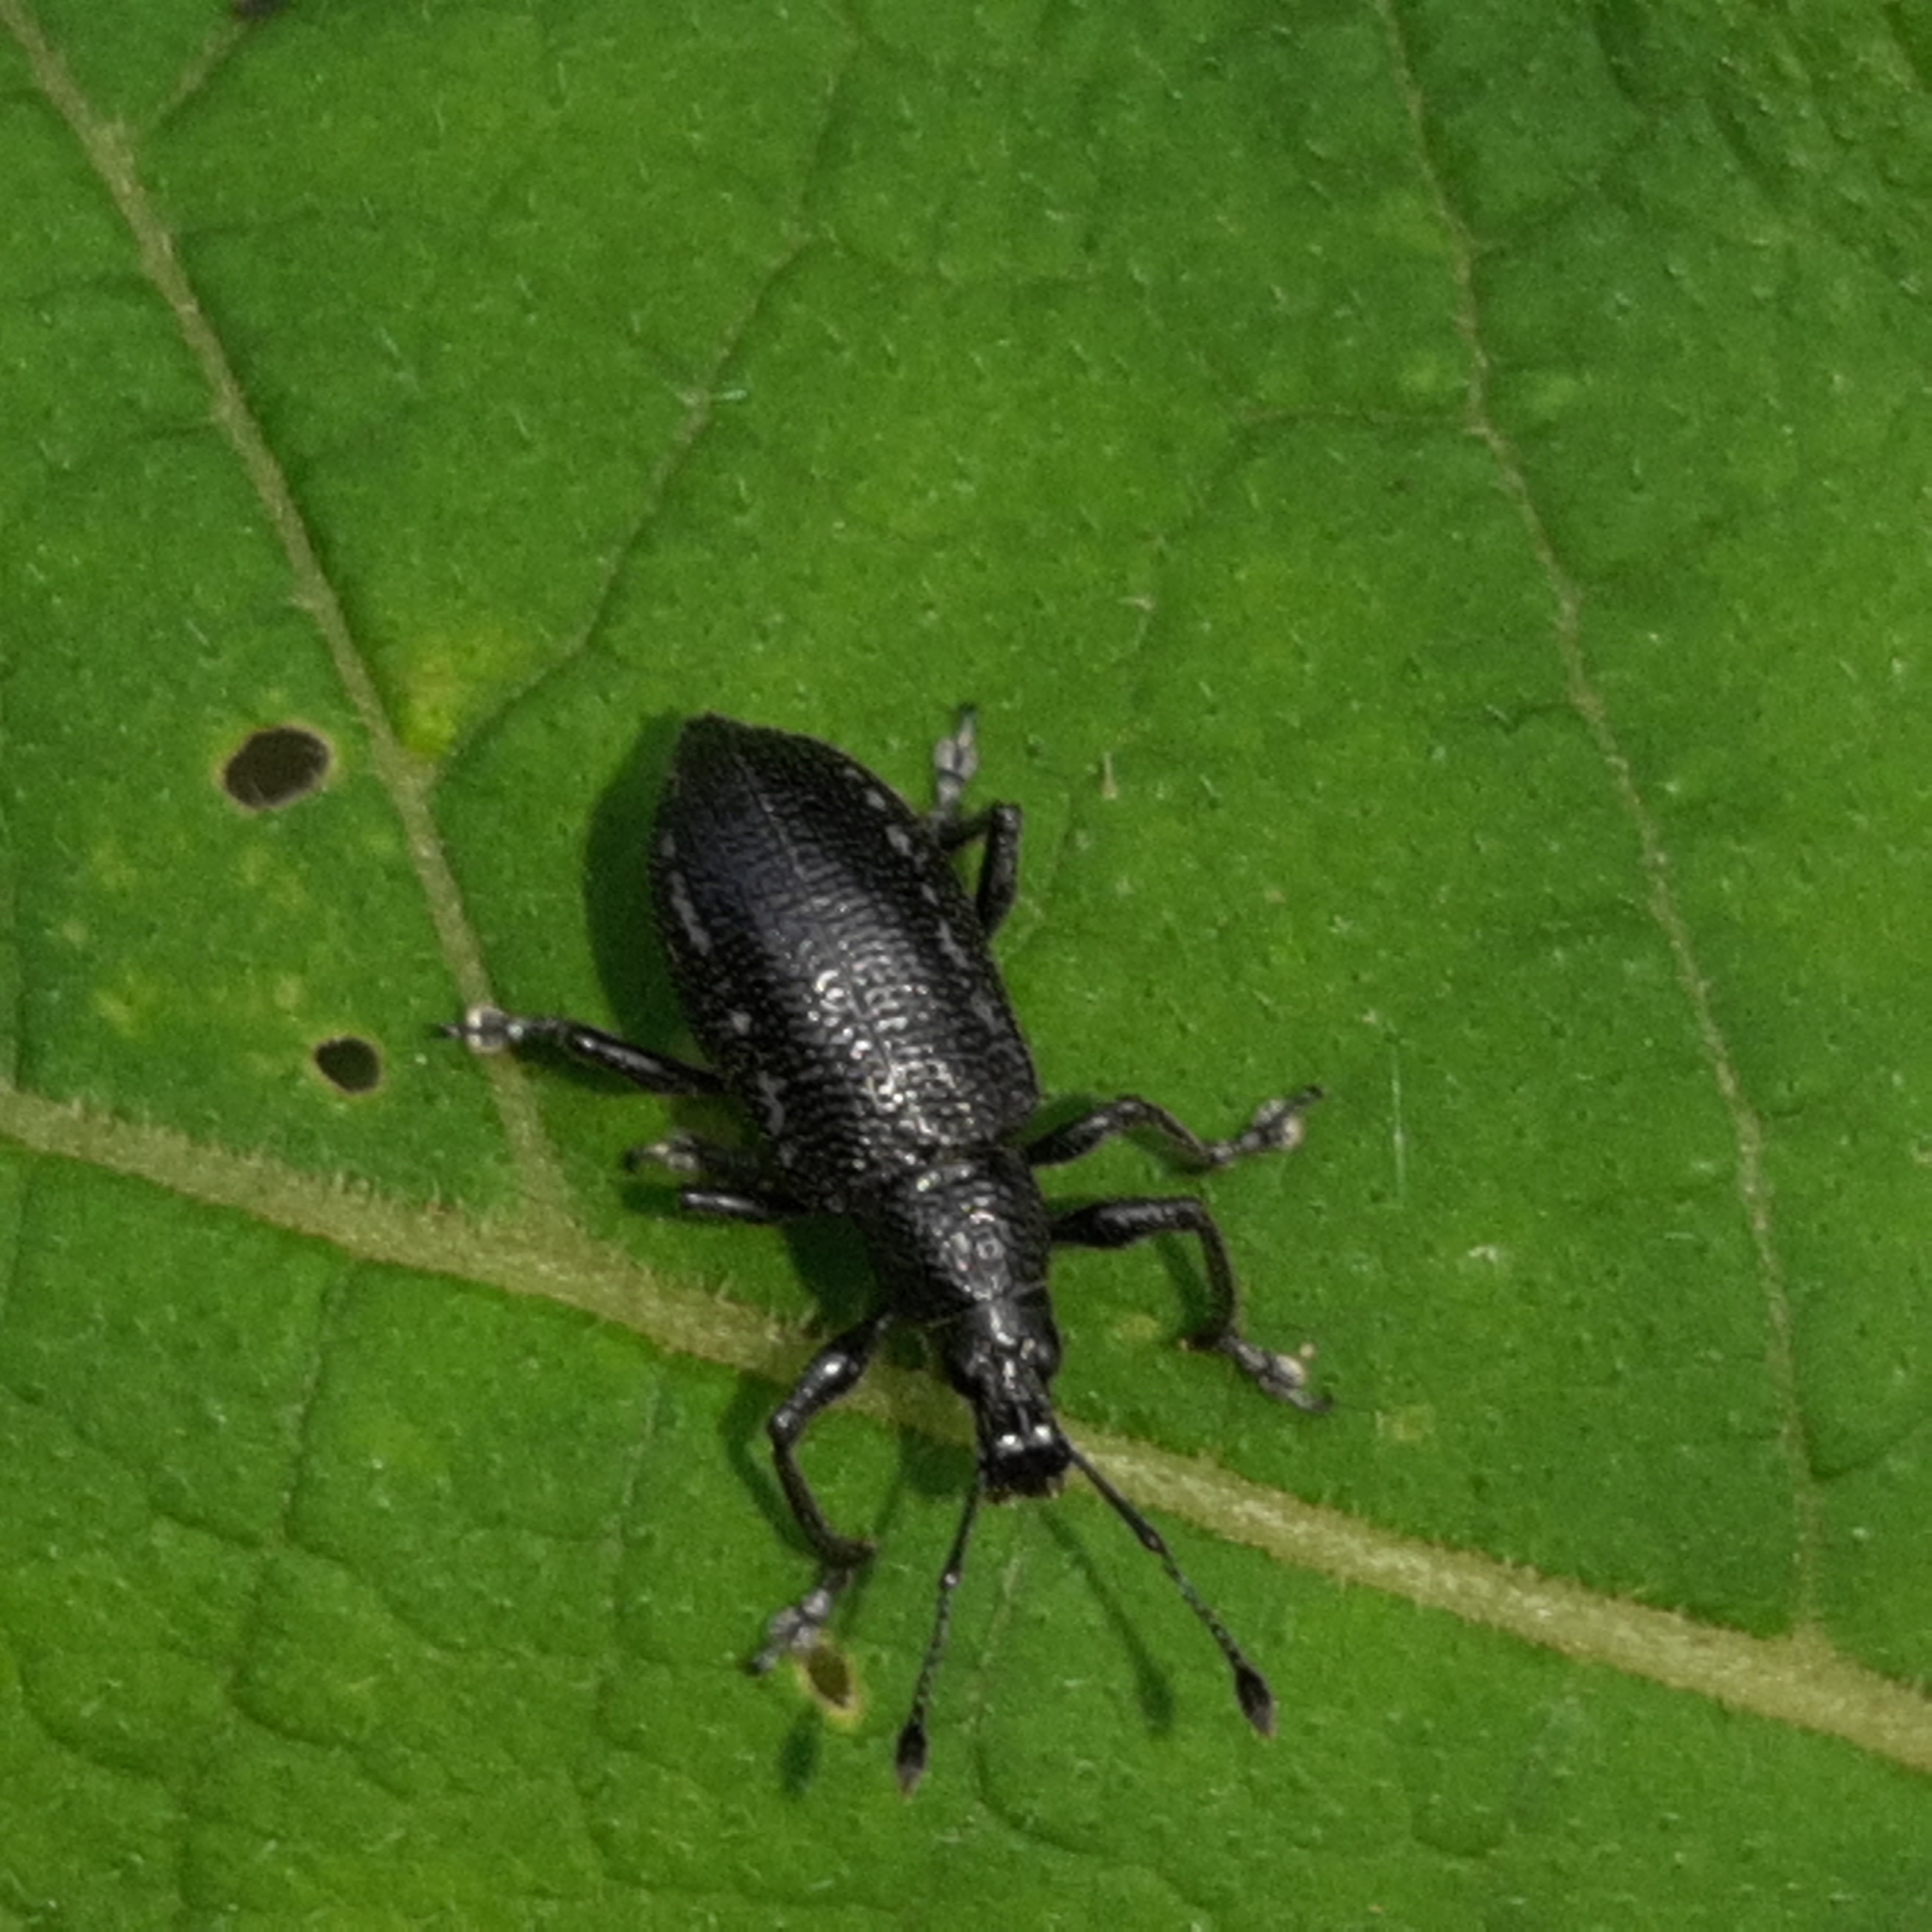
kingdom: Animalia
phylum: Arthropoda
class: Insecta
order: Coleoptera
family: Curculionidae
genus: Exophthalmus
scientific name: Exophthalmus sulcicrus
